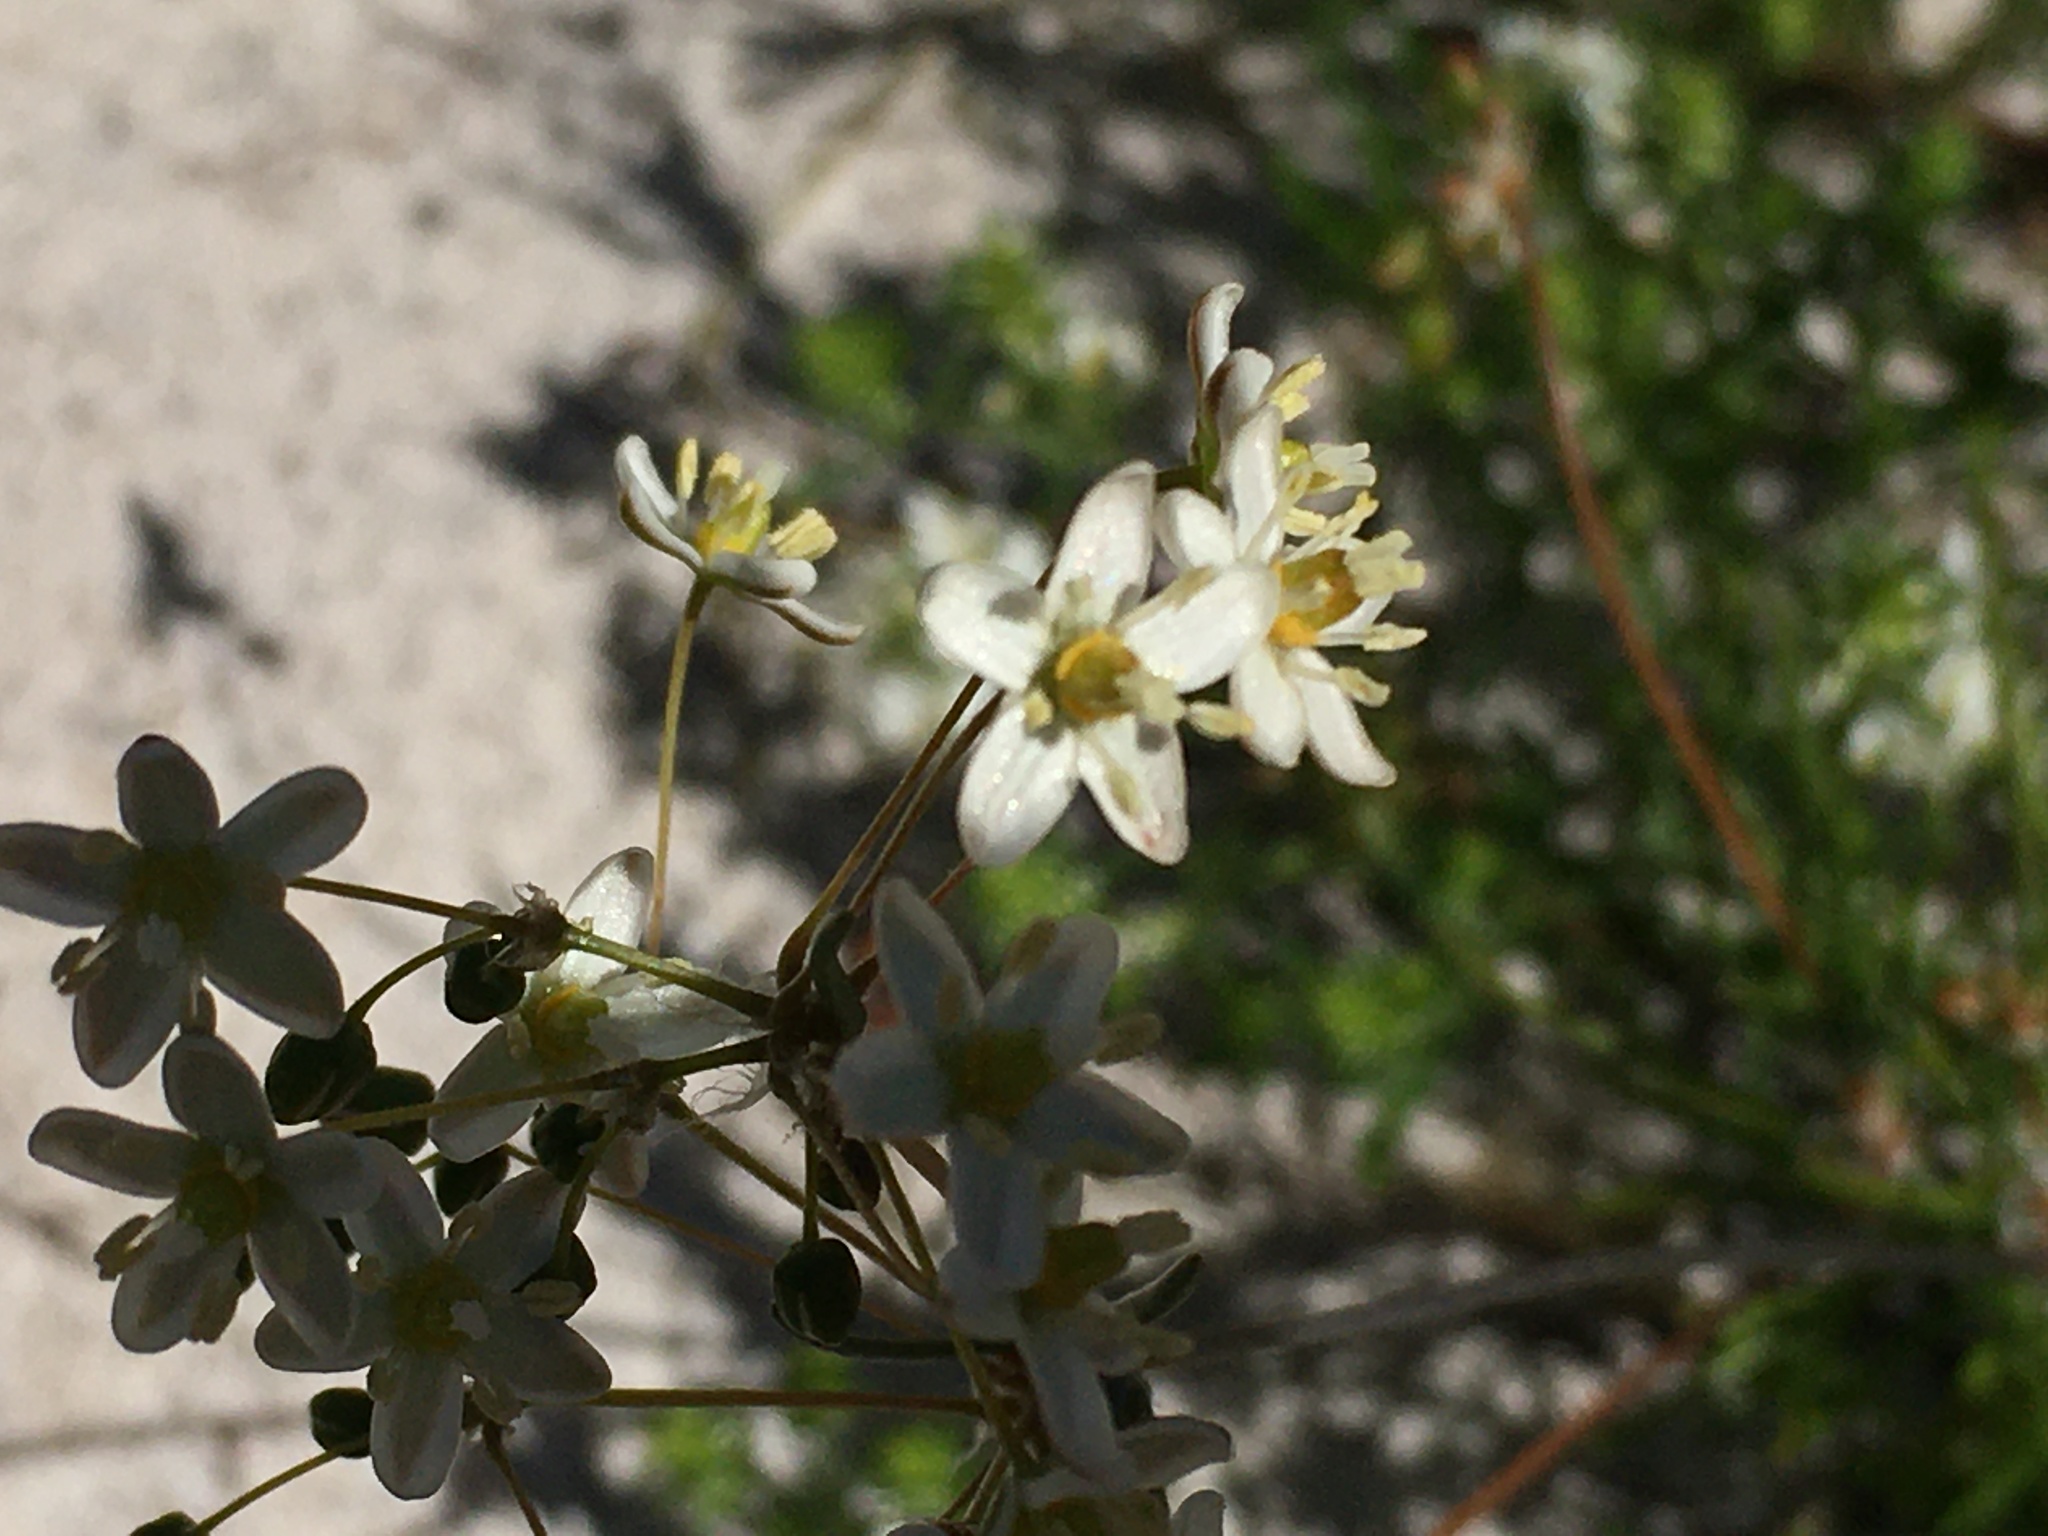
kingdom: Plantae
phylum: Tracheophyta
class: Magnoliopsida
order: Caryophyllales
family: Molluginaceae
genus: Pharnaceum
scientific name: Pharnaceum lanatum
